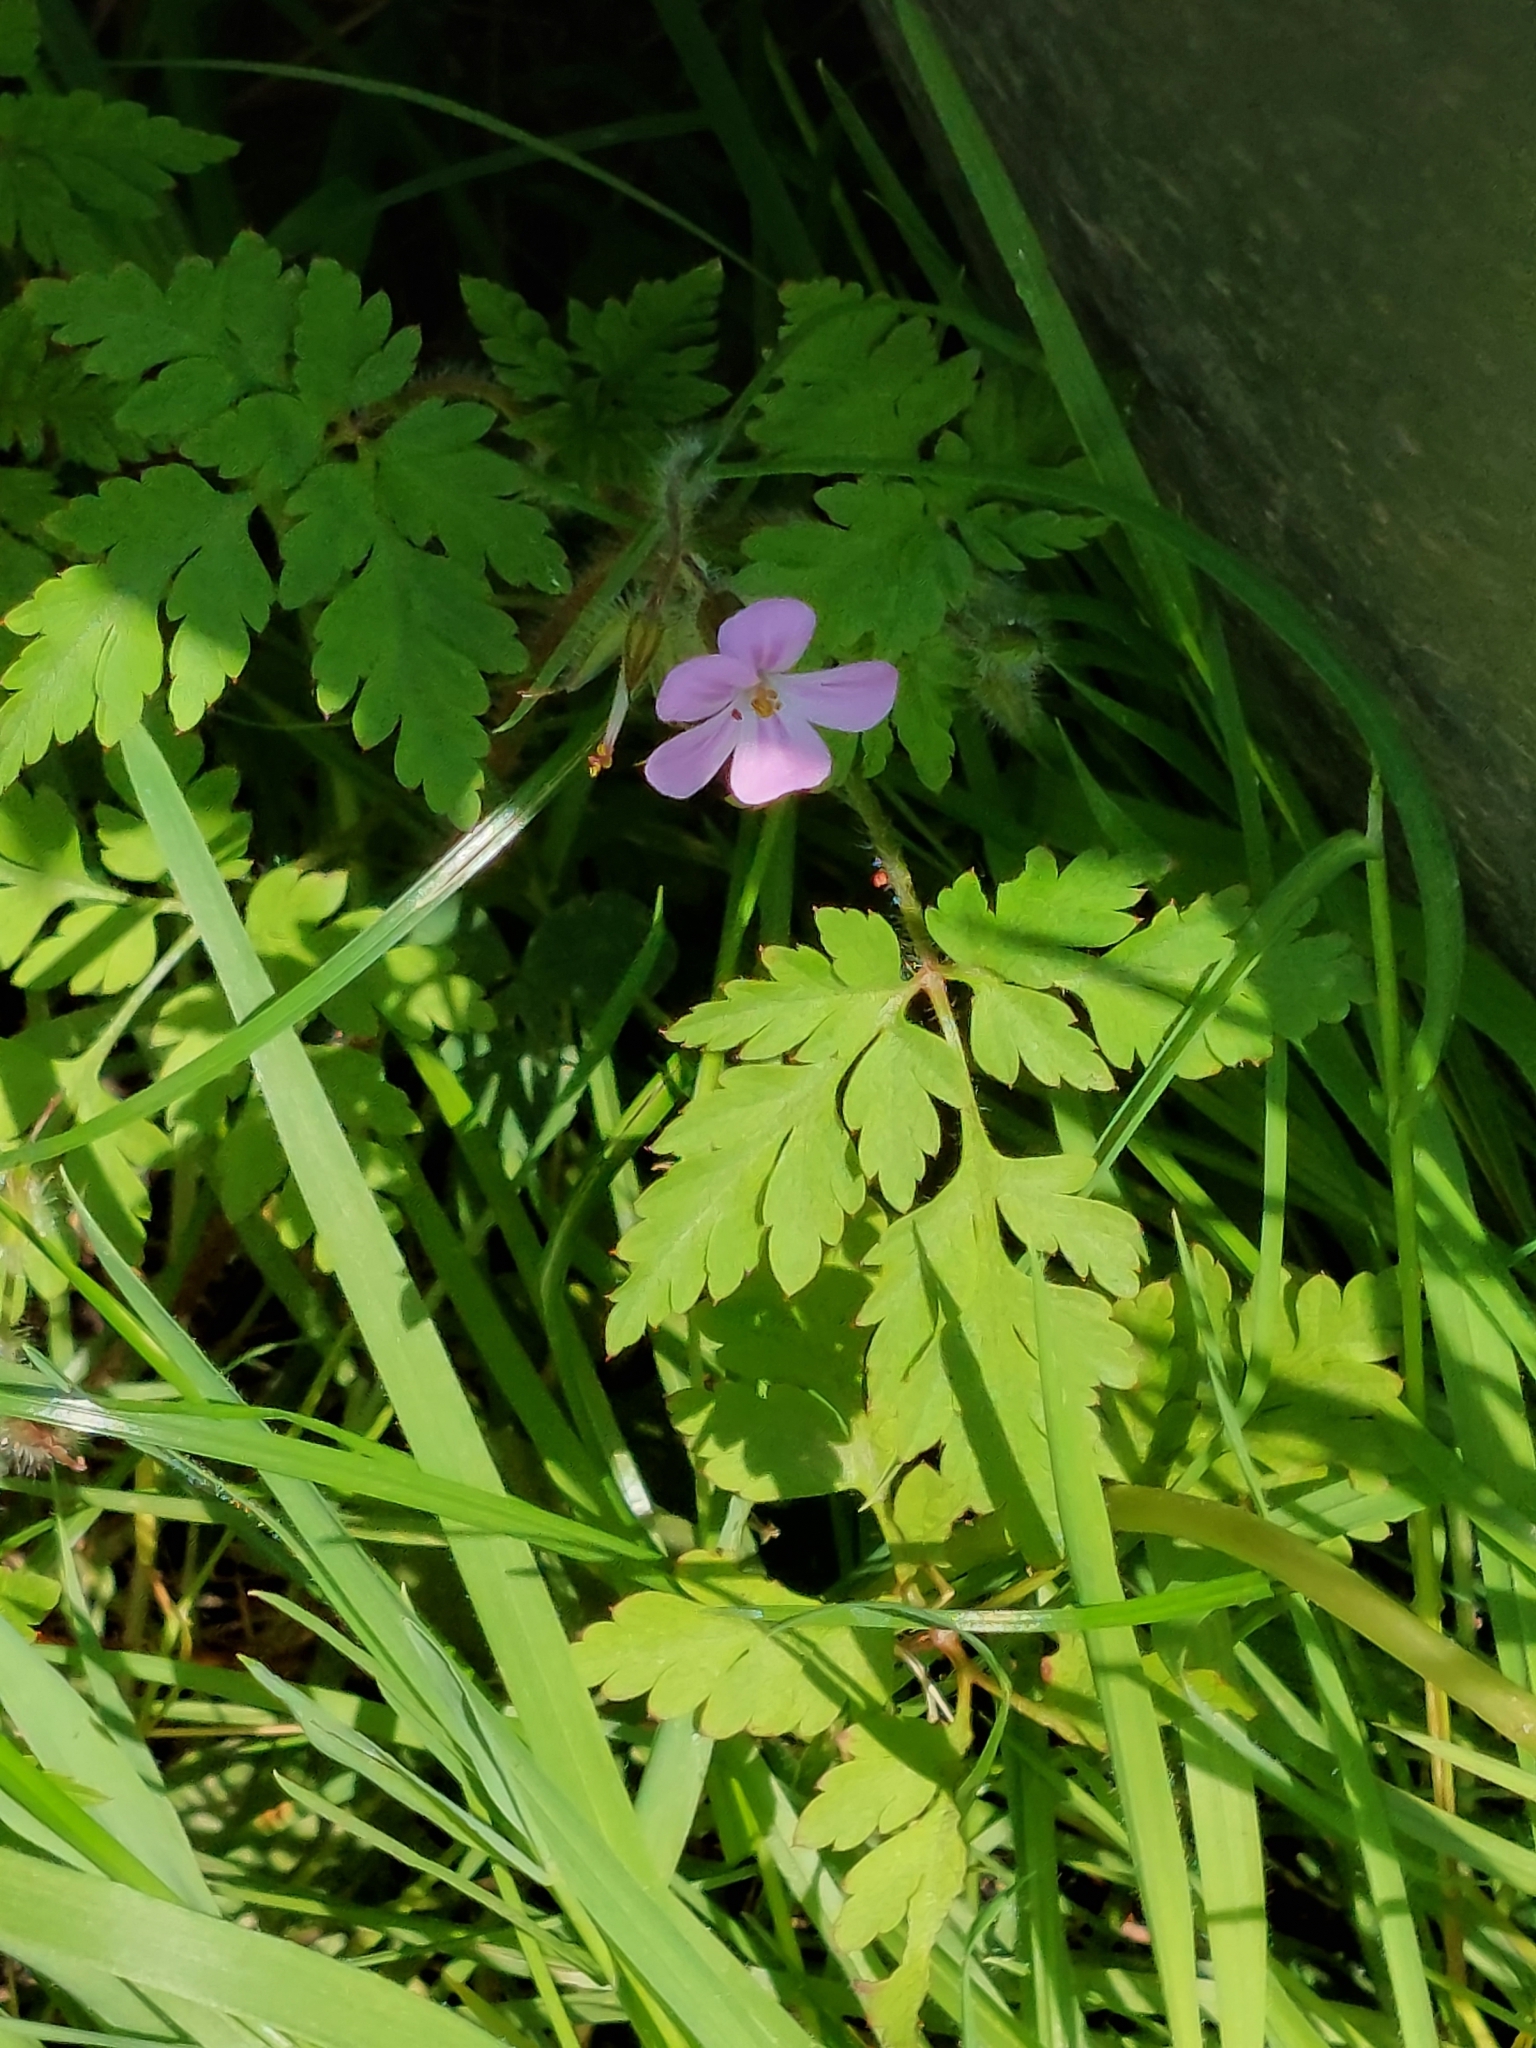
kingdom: Plantae
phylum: Tracheophyta
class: Magnoliopsida
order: Geraniales
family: Geraniaceae
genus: Geranium
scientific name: Geranium robertianum
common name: Herb-robert
